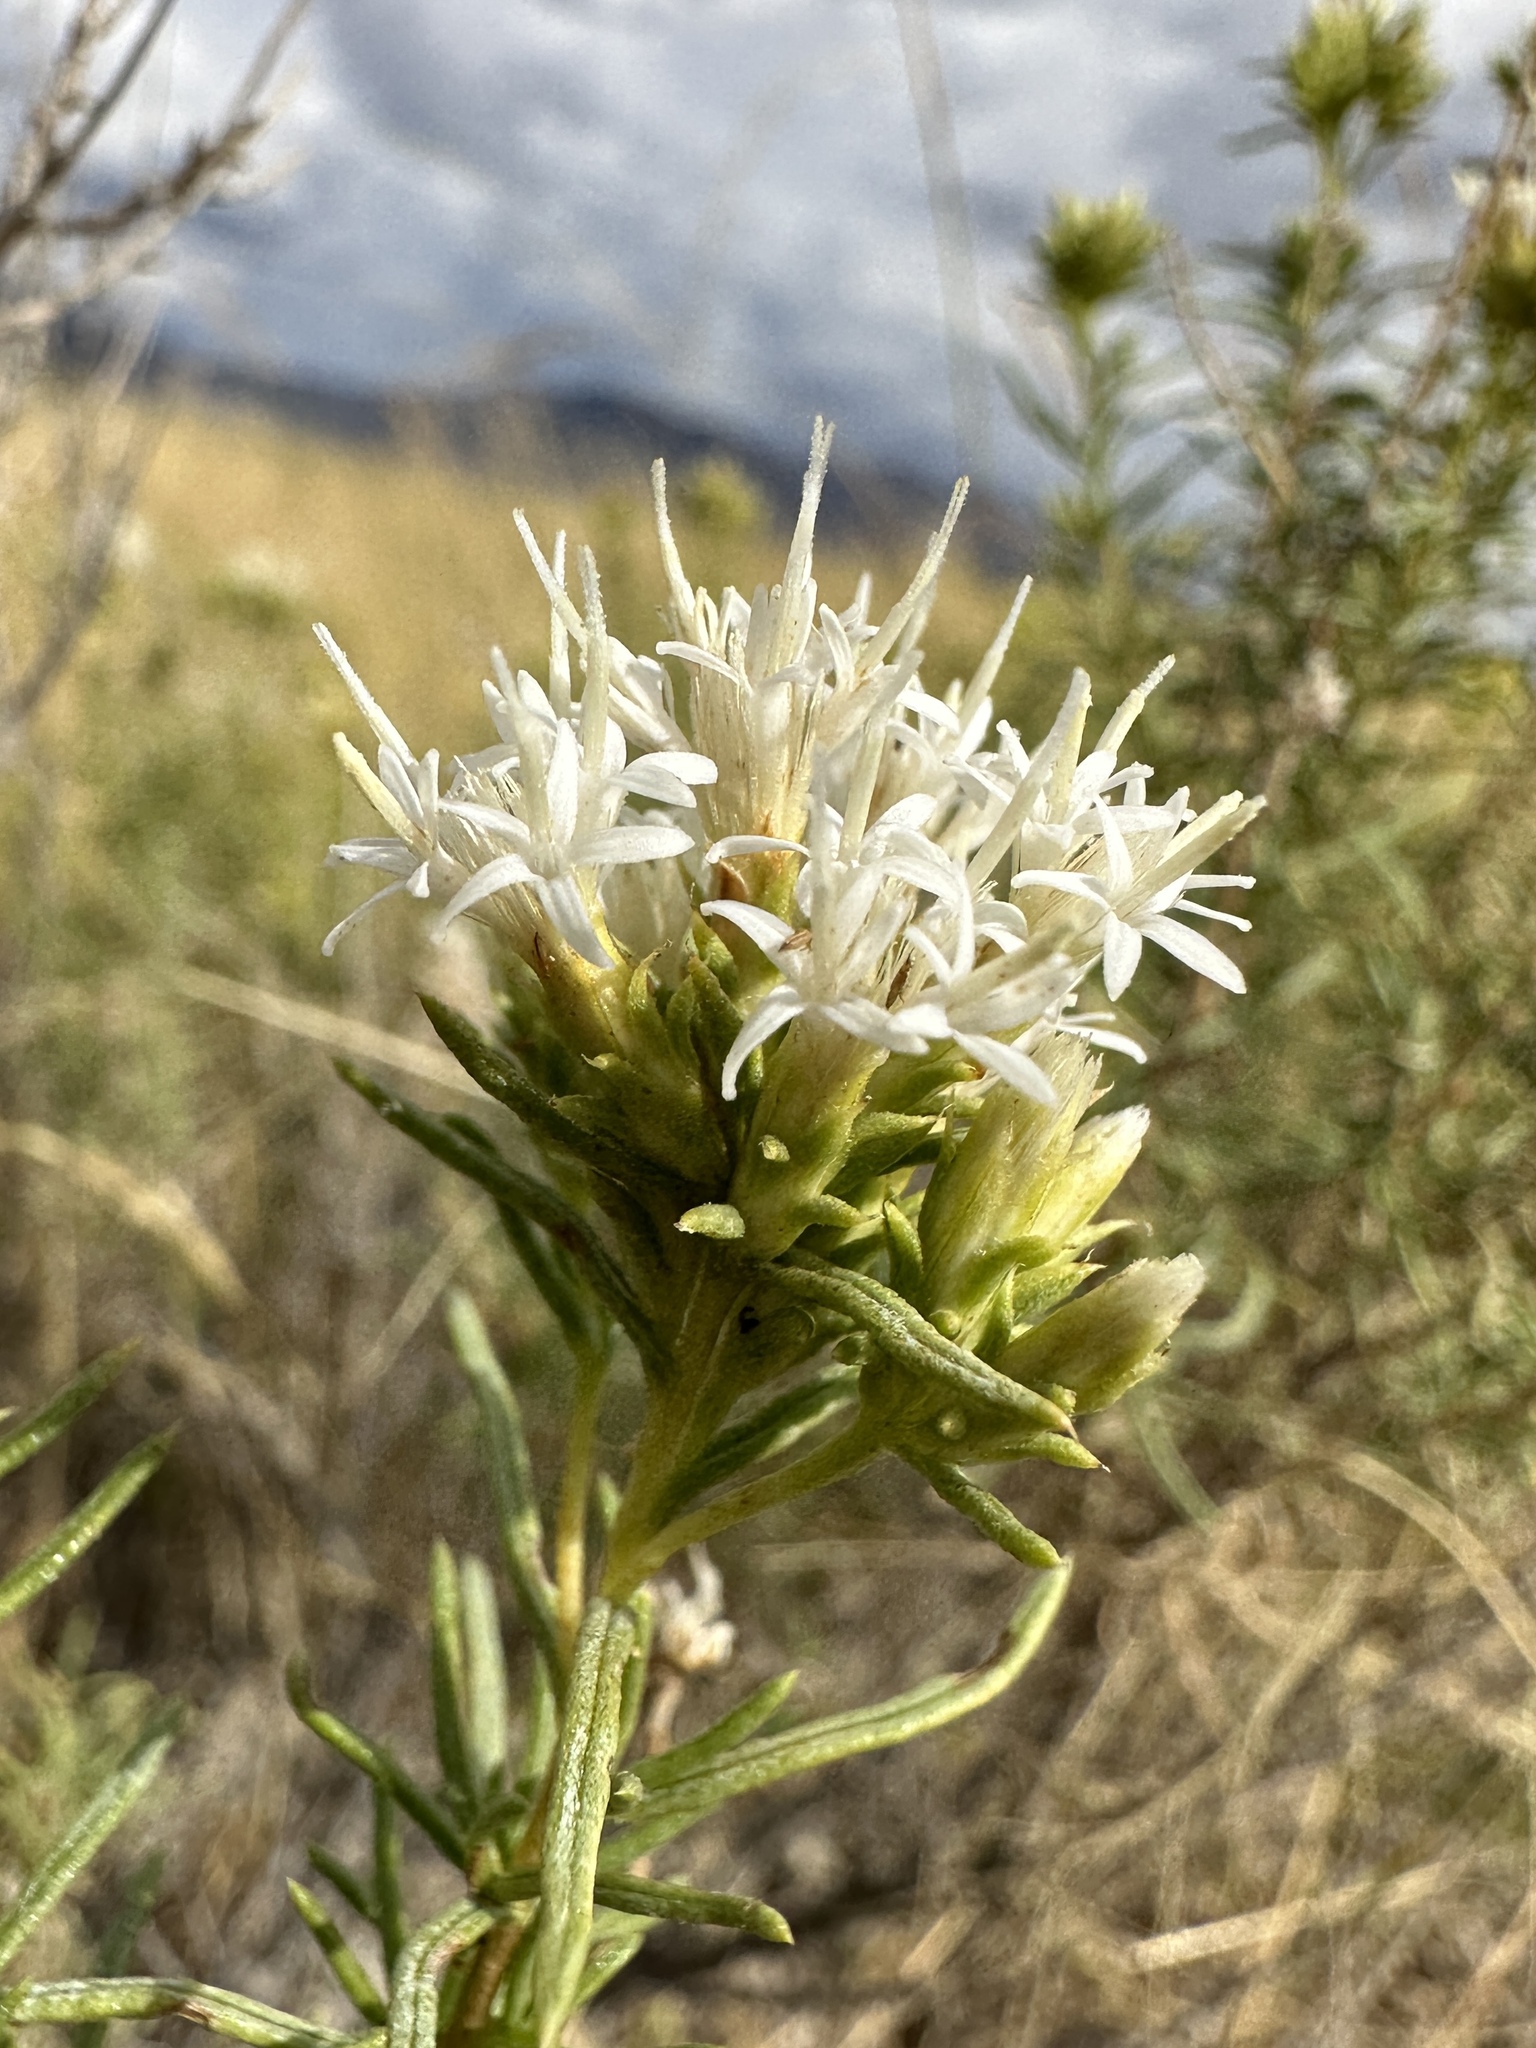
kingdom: Plantae
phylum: Tracheophyta
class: Magnoliopsida
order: Asterales
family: Asteraceae
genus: Ericameria
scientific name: Ericameria albida
